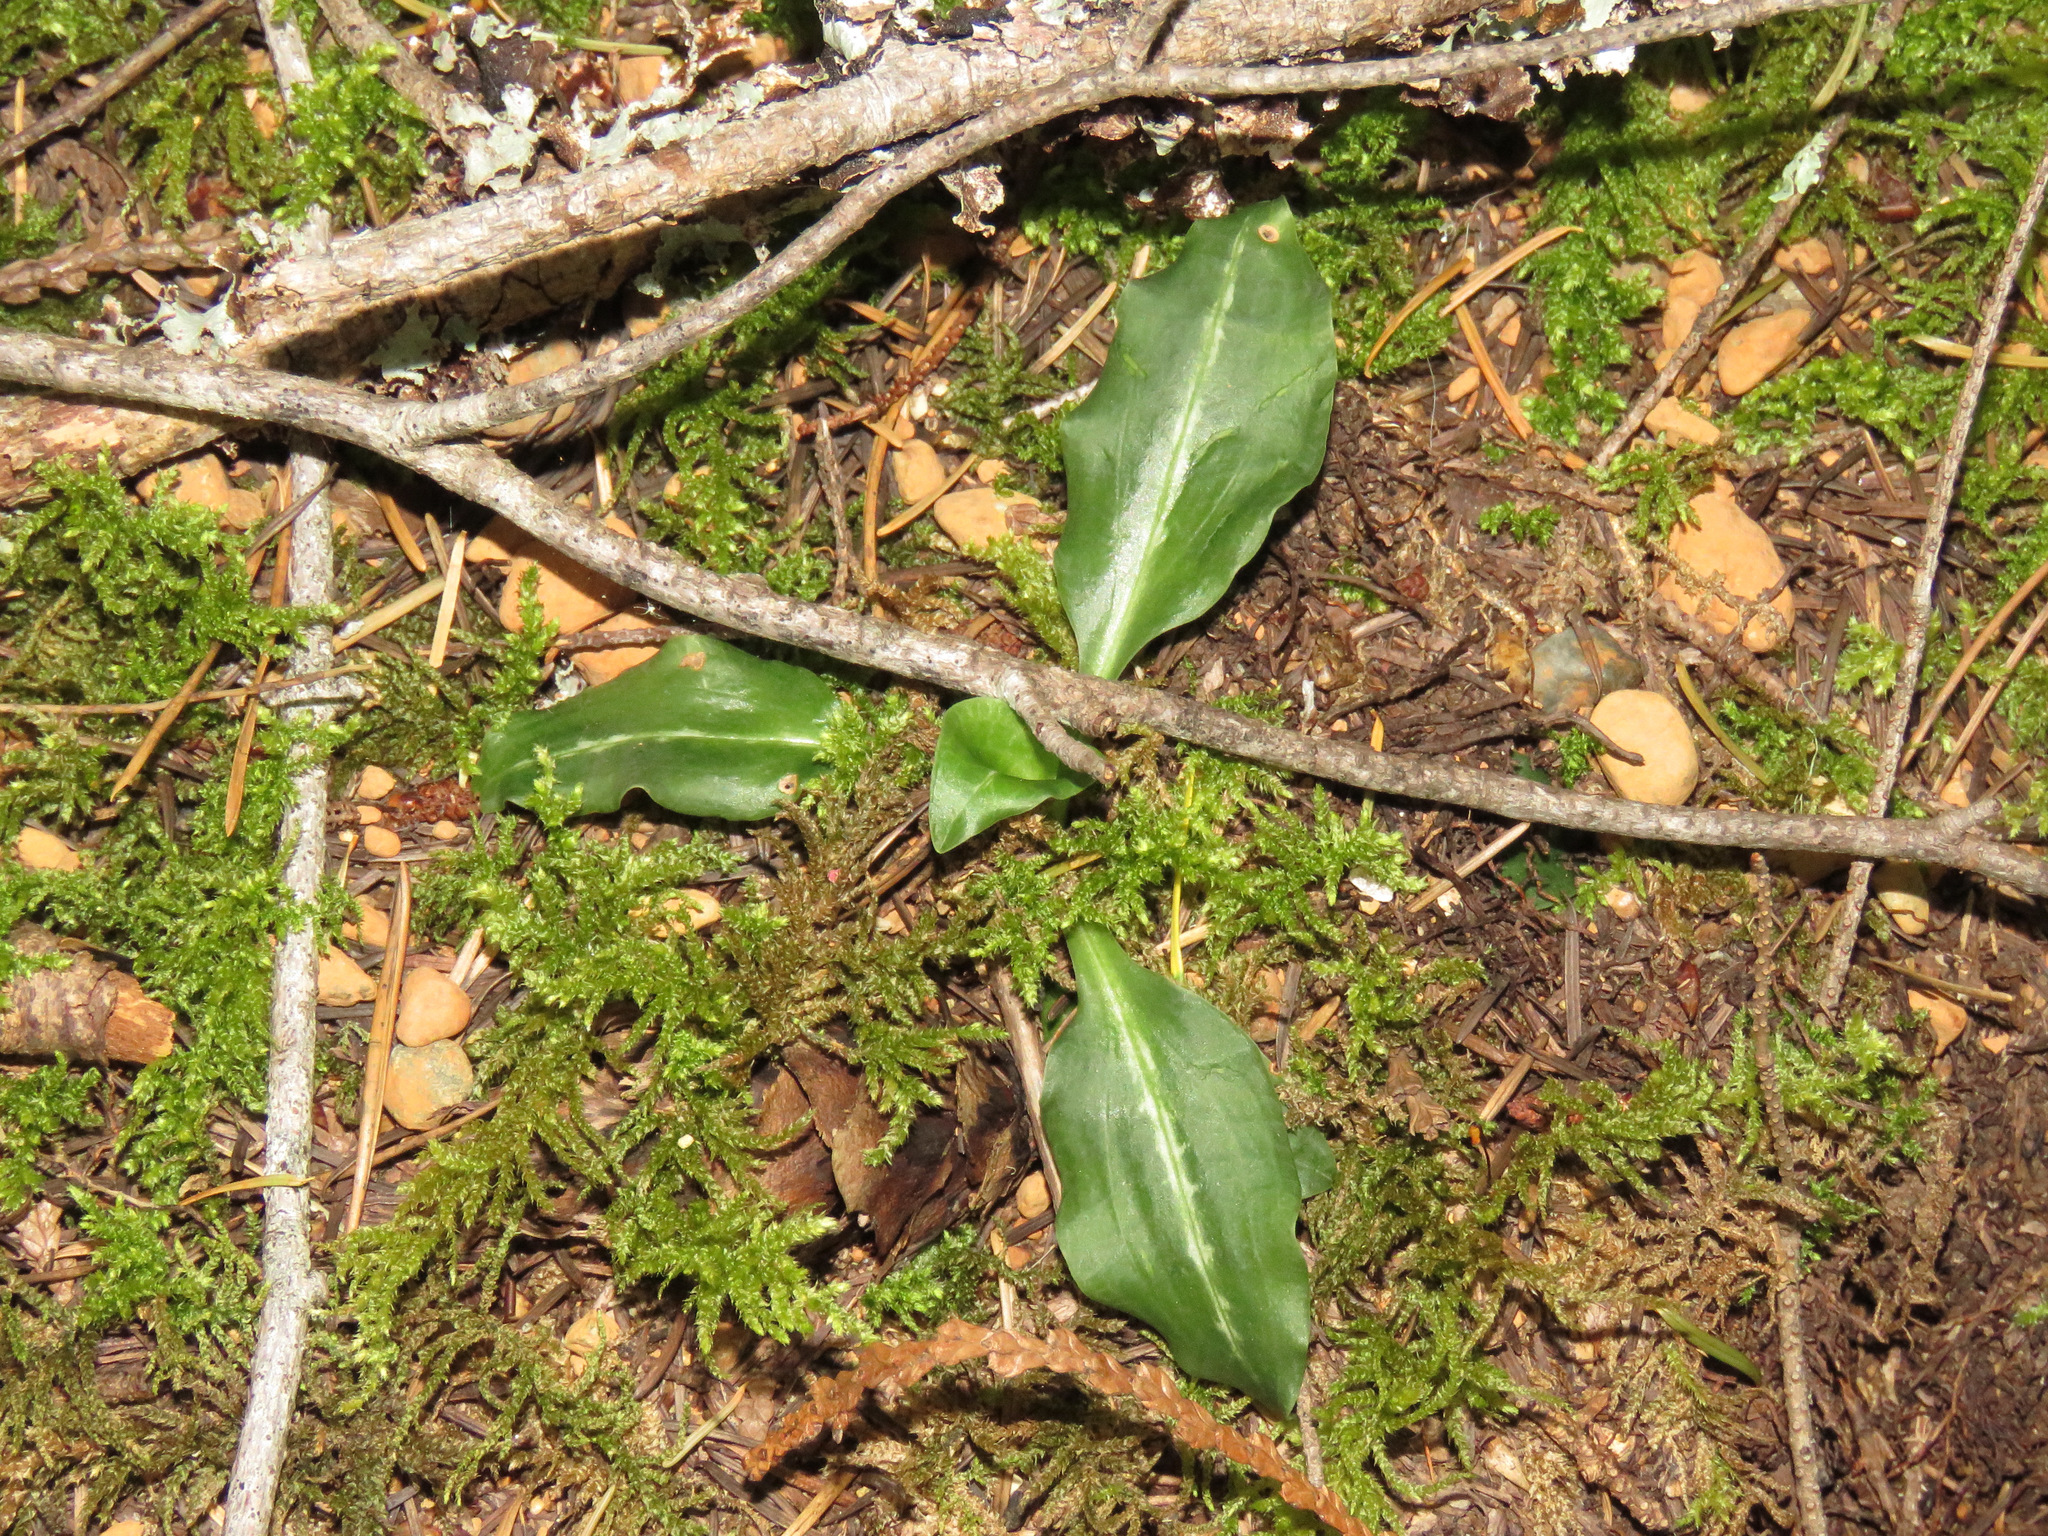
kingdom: Plantae
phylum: Tracheophyta
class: Liliopsida
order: Asparagales
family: Orchidaceae
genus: Goodyera
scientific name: Goodyera oblongifolia
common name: Giant rattlesnake-plantain
